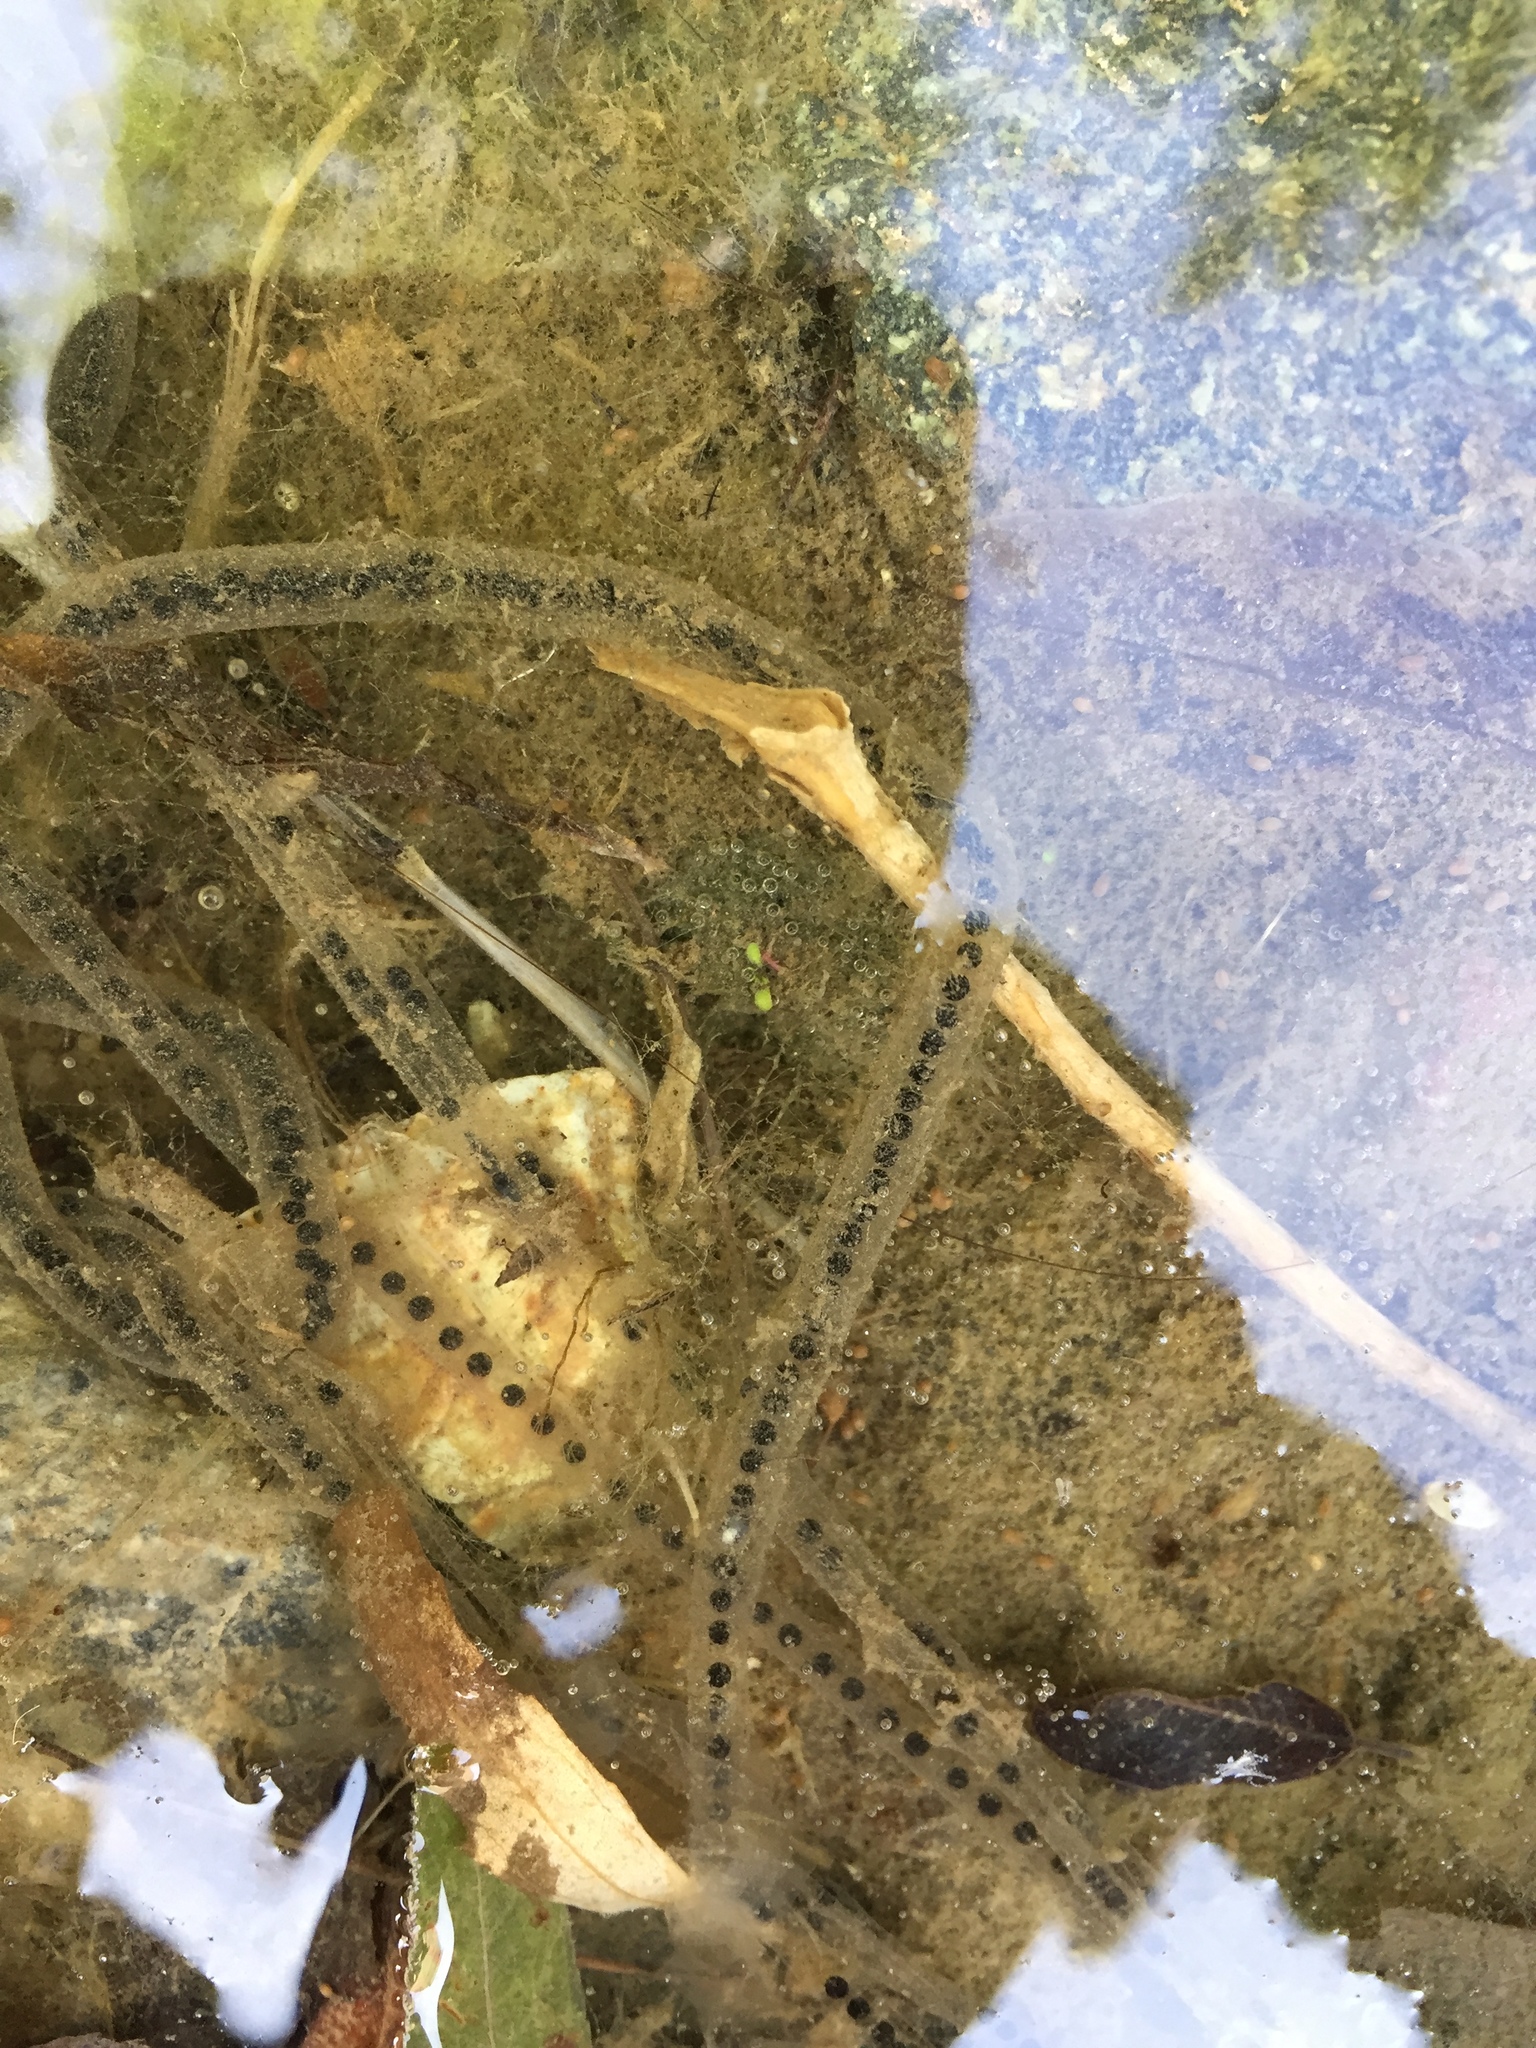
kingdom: Animalia
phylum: Chordata
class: Amphibia
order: Anura
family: Bufonidae
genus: Anaxyrus
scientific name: Anaxyrus
